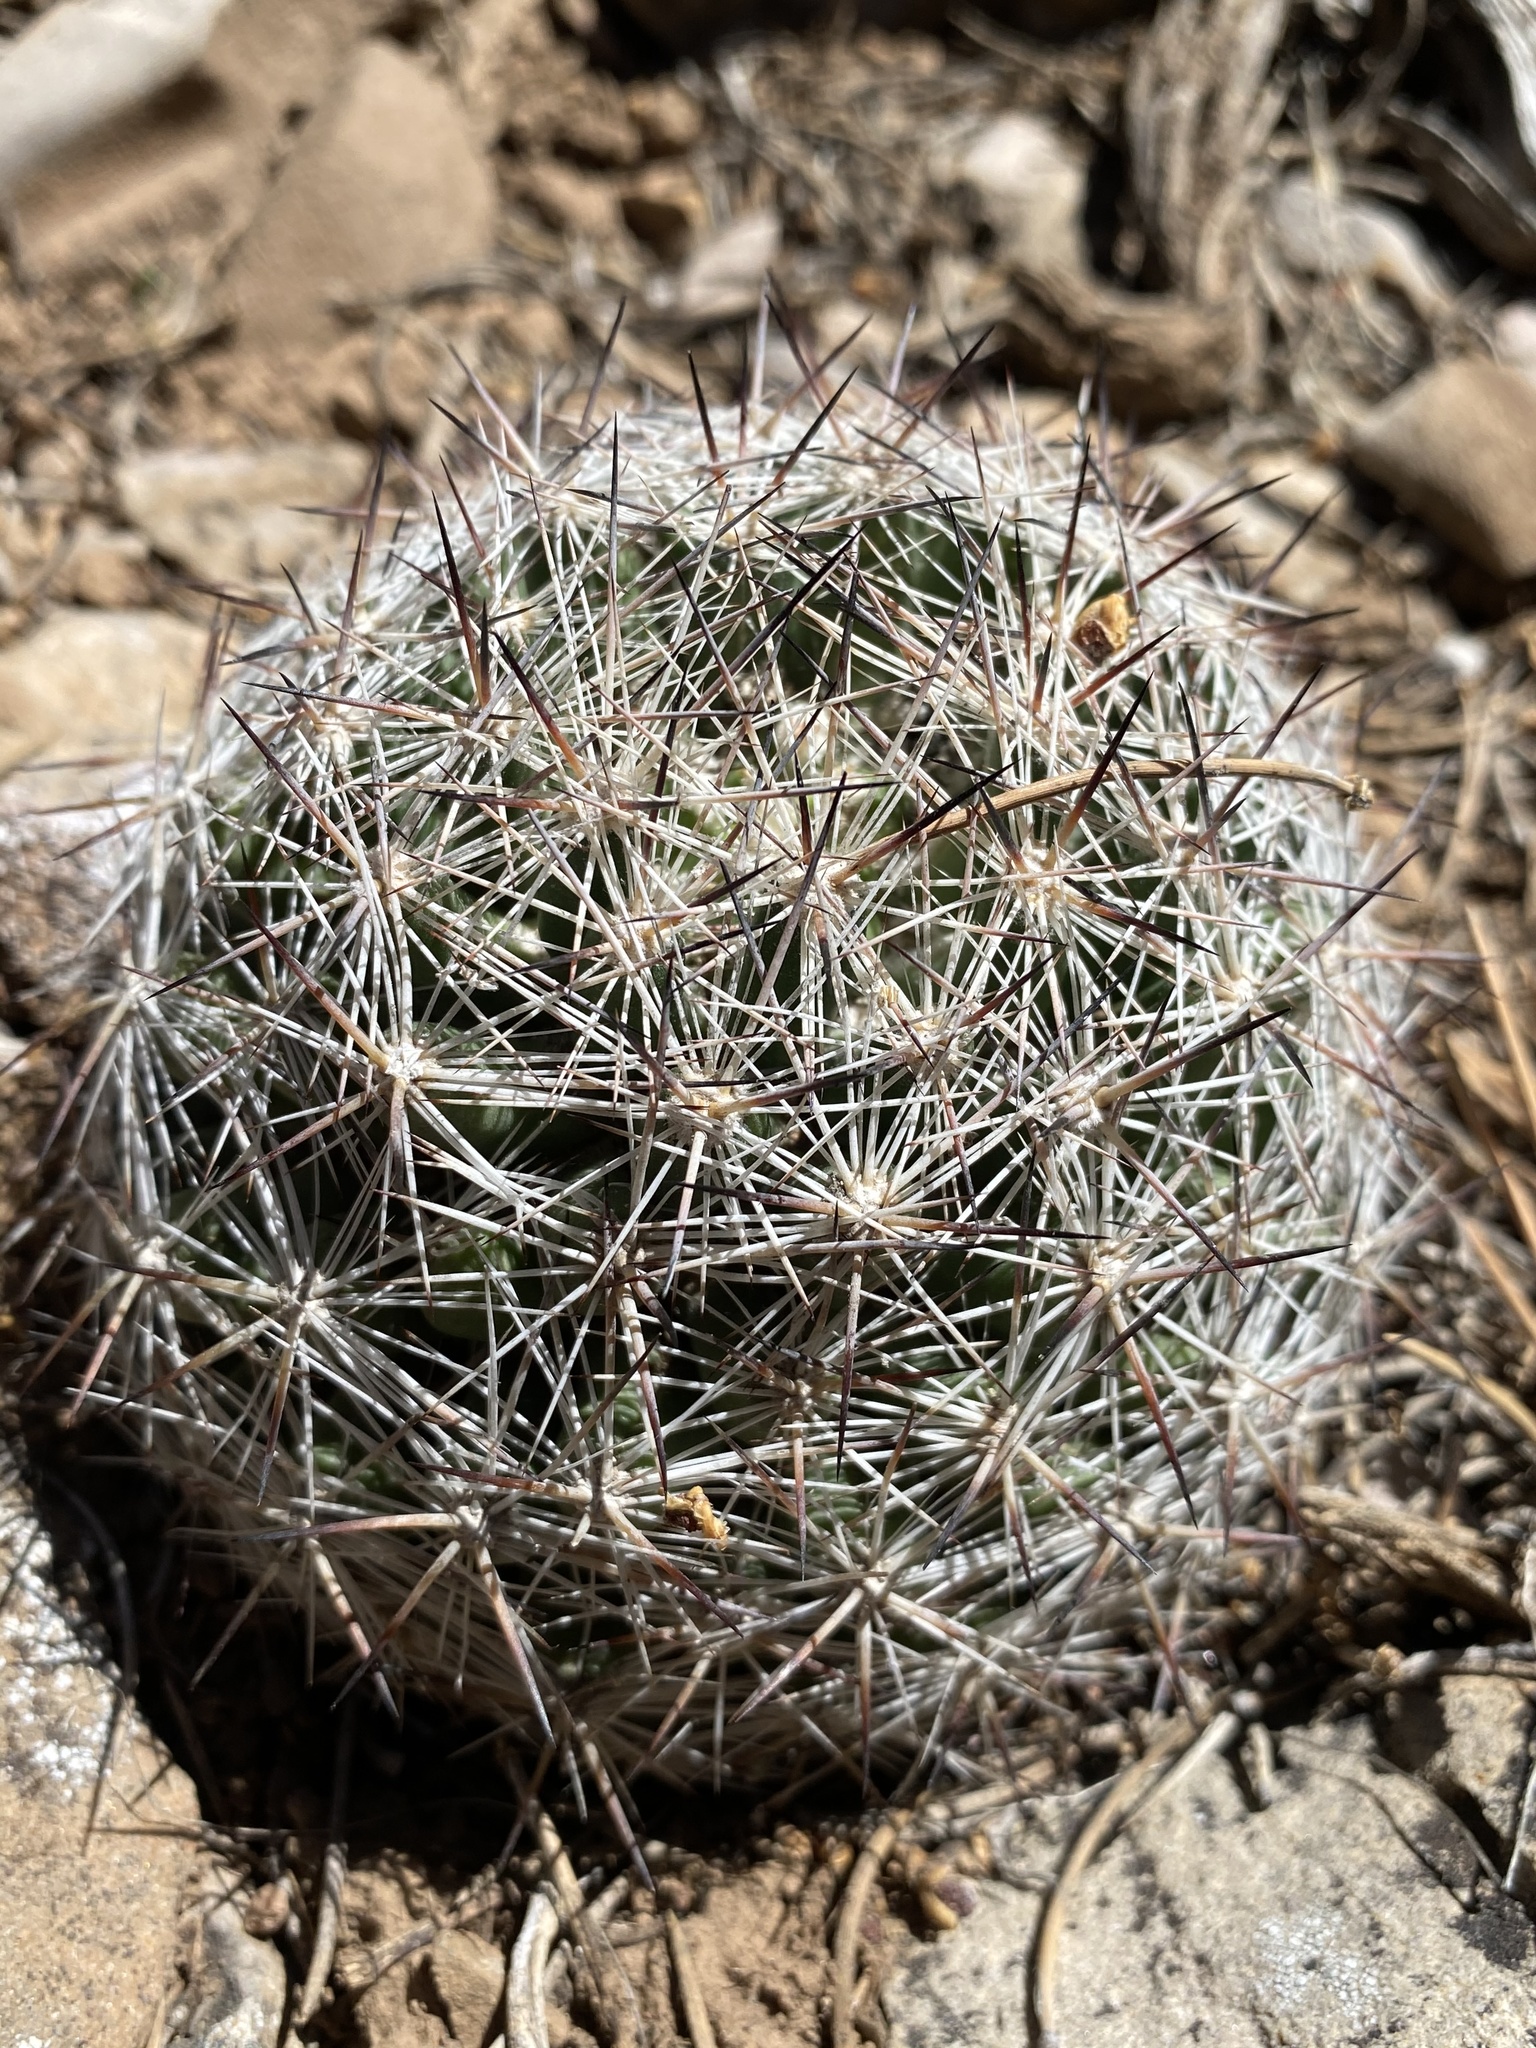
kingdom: Plantae
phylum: Tracheophyta
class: Magnoliopsida
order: Caryophyllales
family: Cactaceae
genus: Pelecyphora
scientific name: Pelecyphora vivipara
